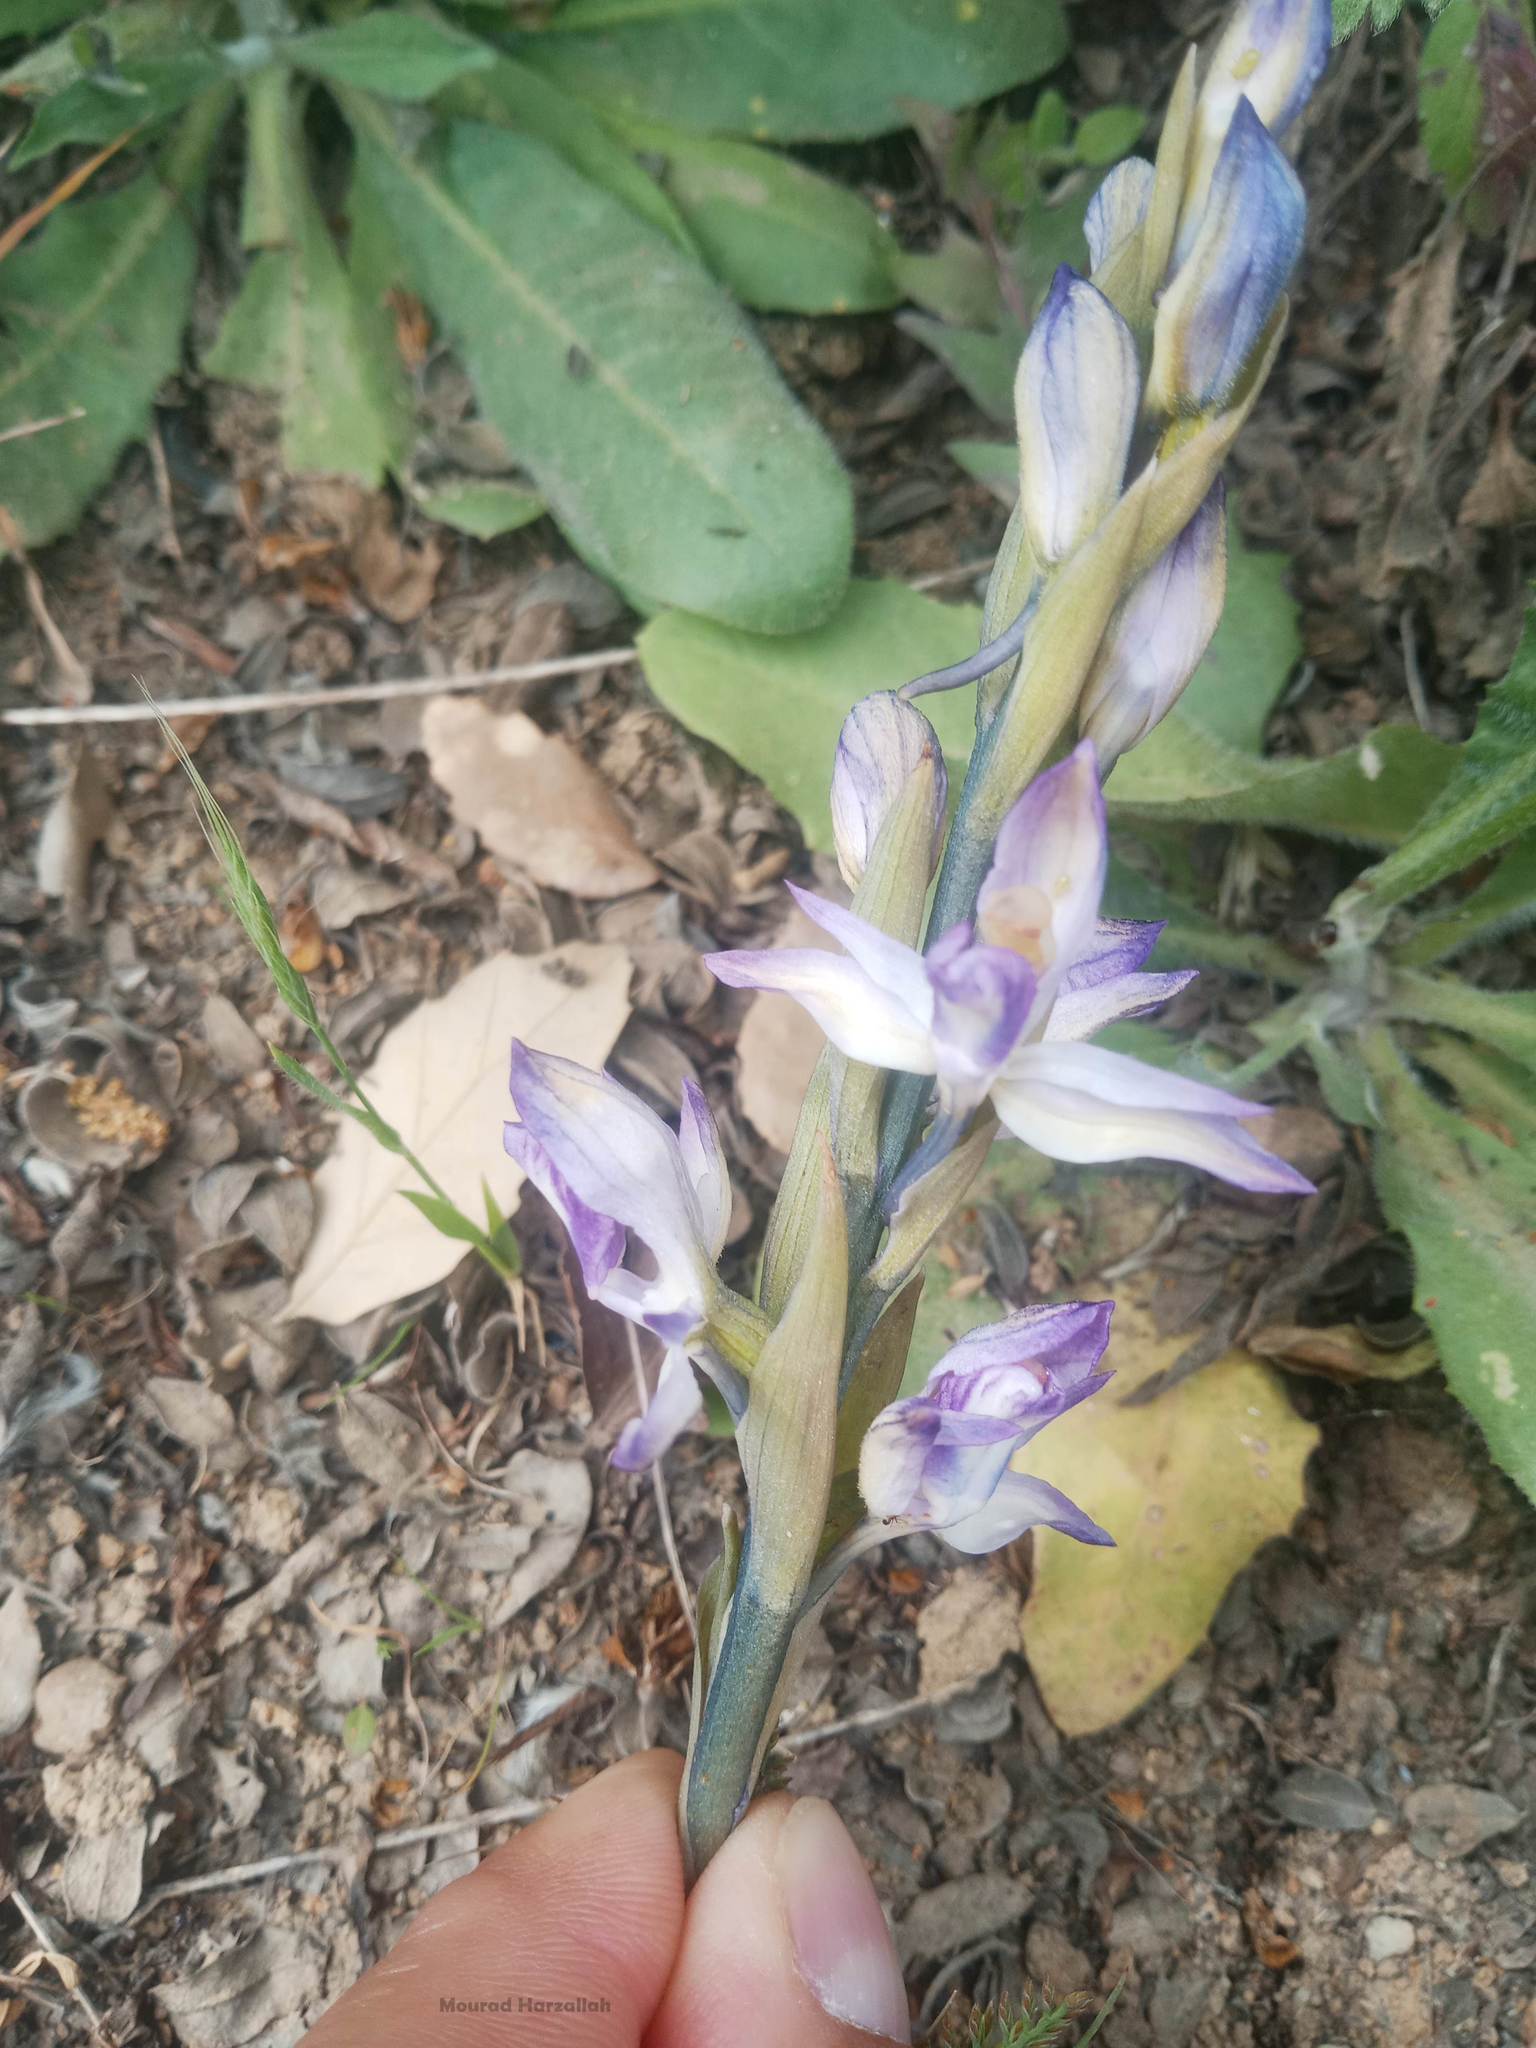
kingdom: Plantae
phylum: Tracheophyta
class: Liliopsida
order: Asparagales
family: Orchidaceae
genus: Limodorum
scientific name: Limodorum abortivum
